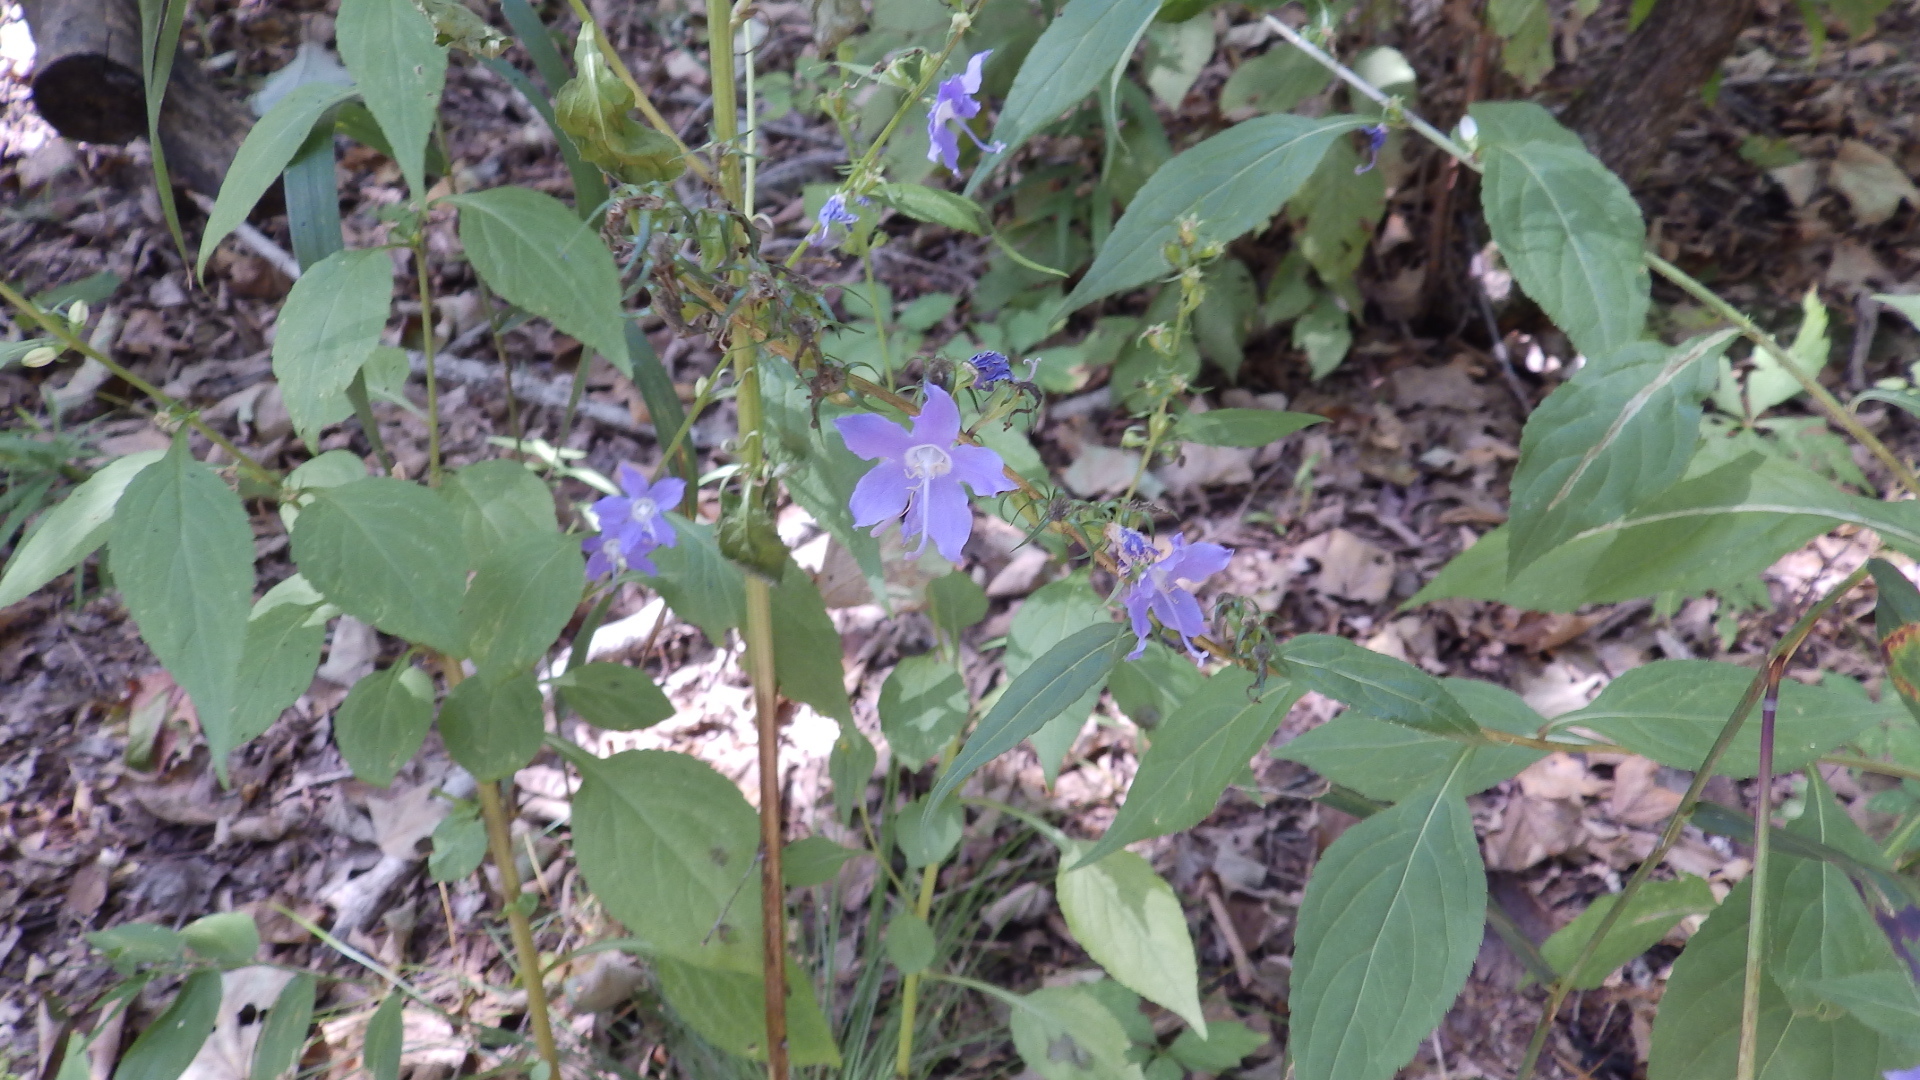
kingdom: Plantae
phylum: Tracheophyta
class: Magnoliopsida
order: Asterales
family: Campanulaceae
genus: Campanulastrum
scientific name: Campanulastrum americanum
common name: American bellflower
